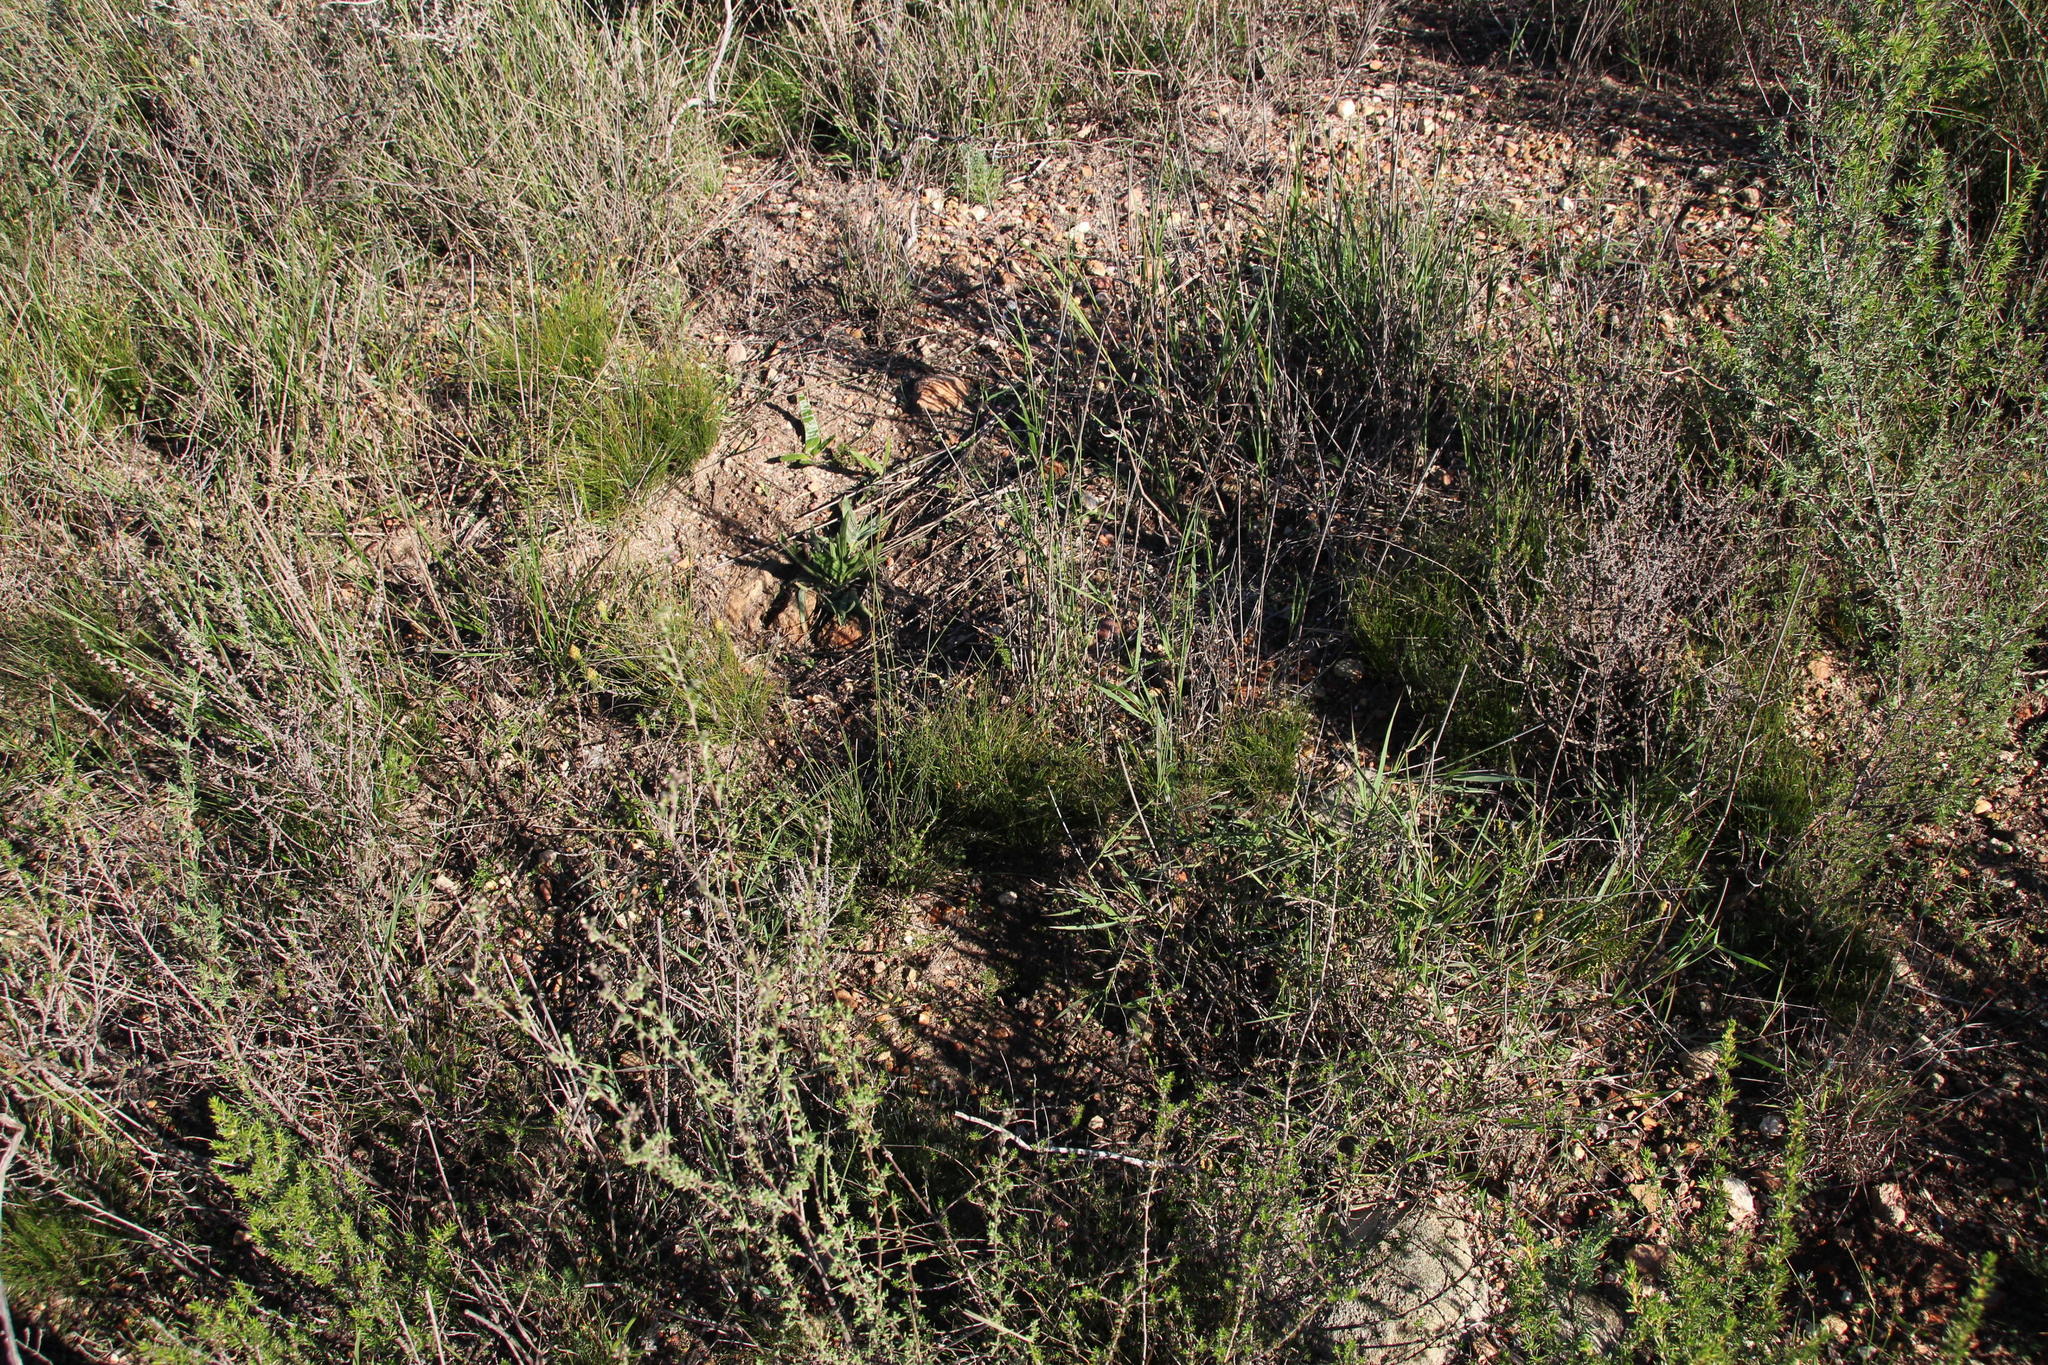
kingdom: Plantae
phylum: Tracheophyta
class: Liliopsida
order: Poales
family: Cyperaceae
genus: Ficinia
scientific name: Ficinia nigrescens
